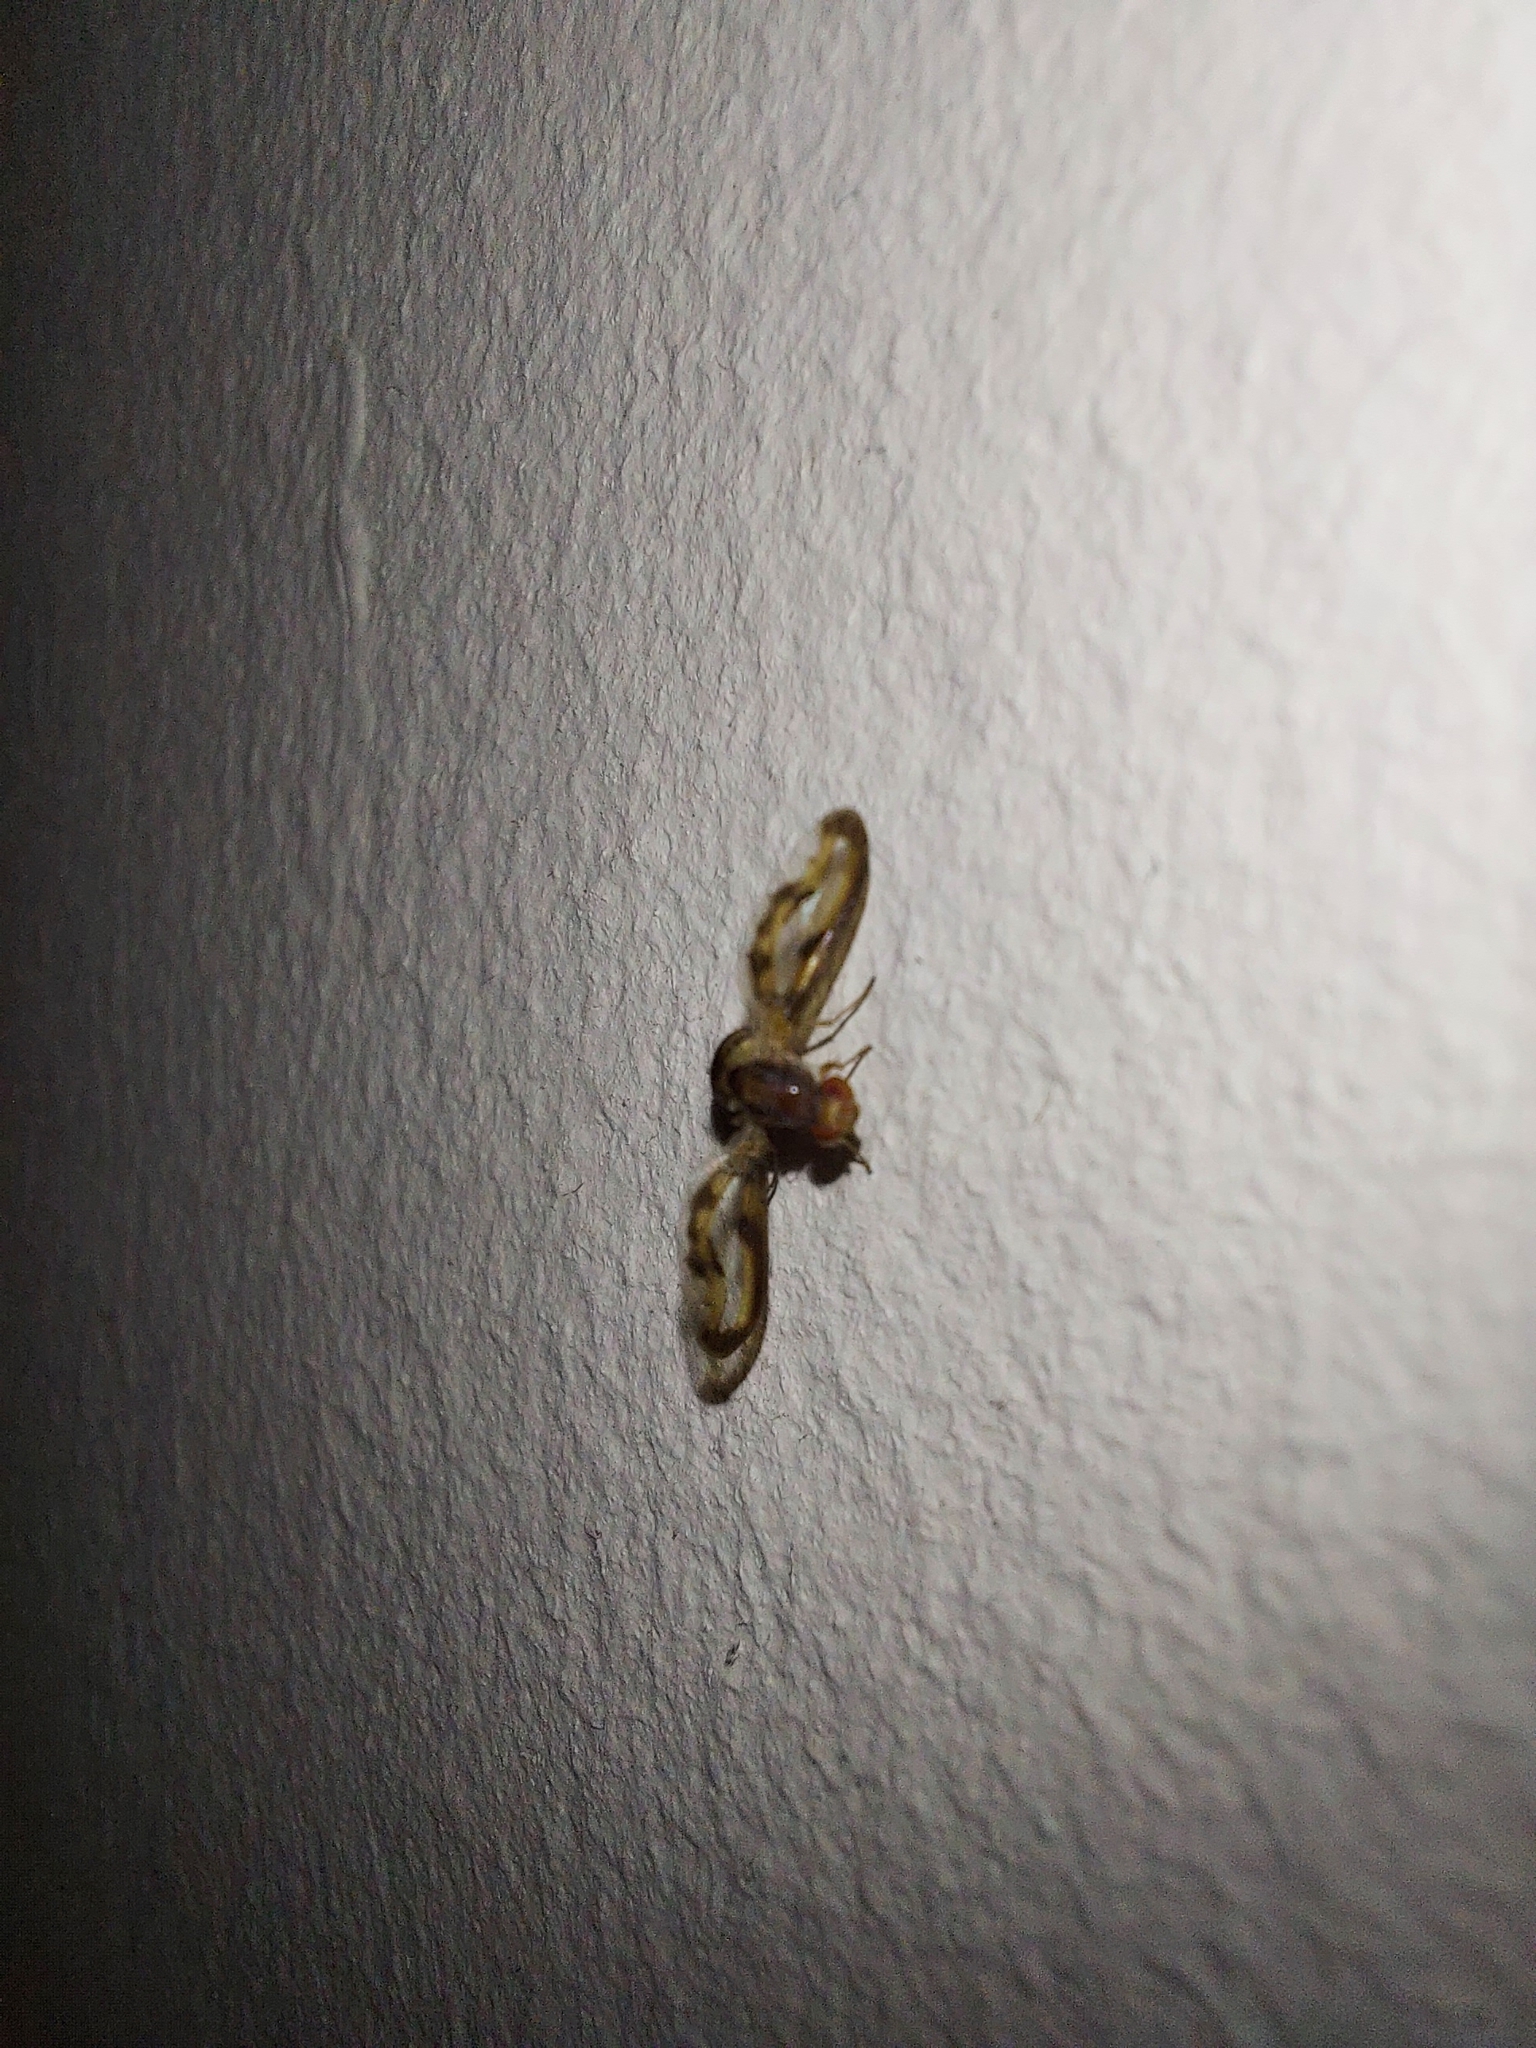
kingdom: Animalia
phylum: Arthropoda
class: Insecta
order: Diptera
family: Pallopteridae
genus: Toxonevra
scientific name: Toxonevra muliebris
